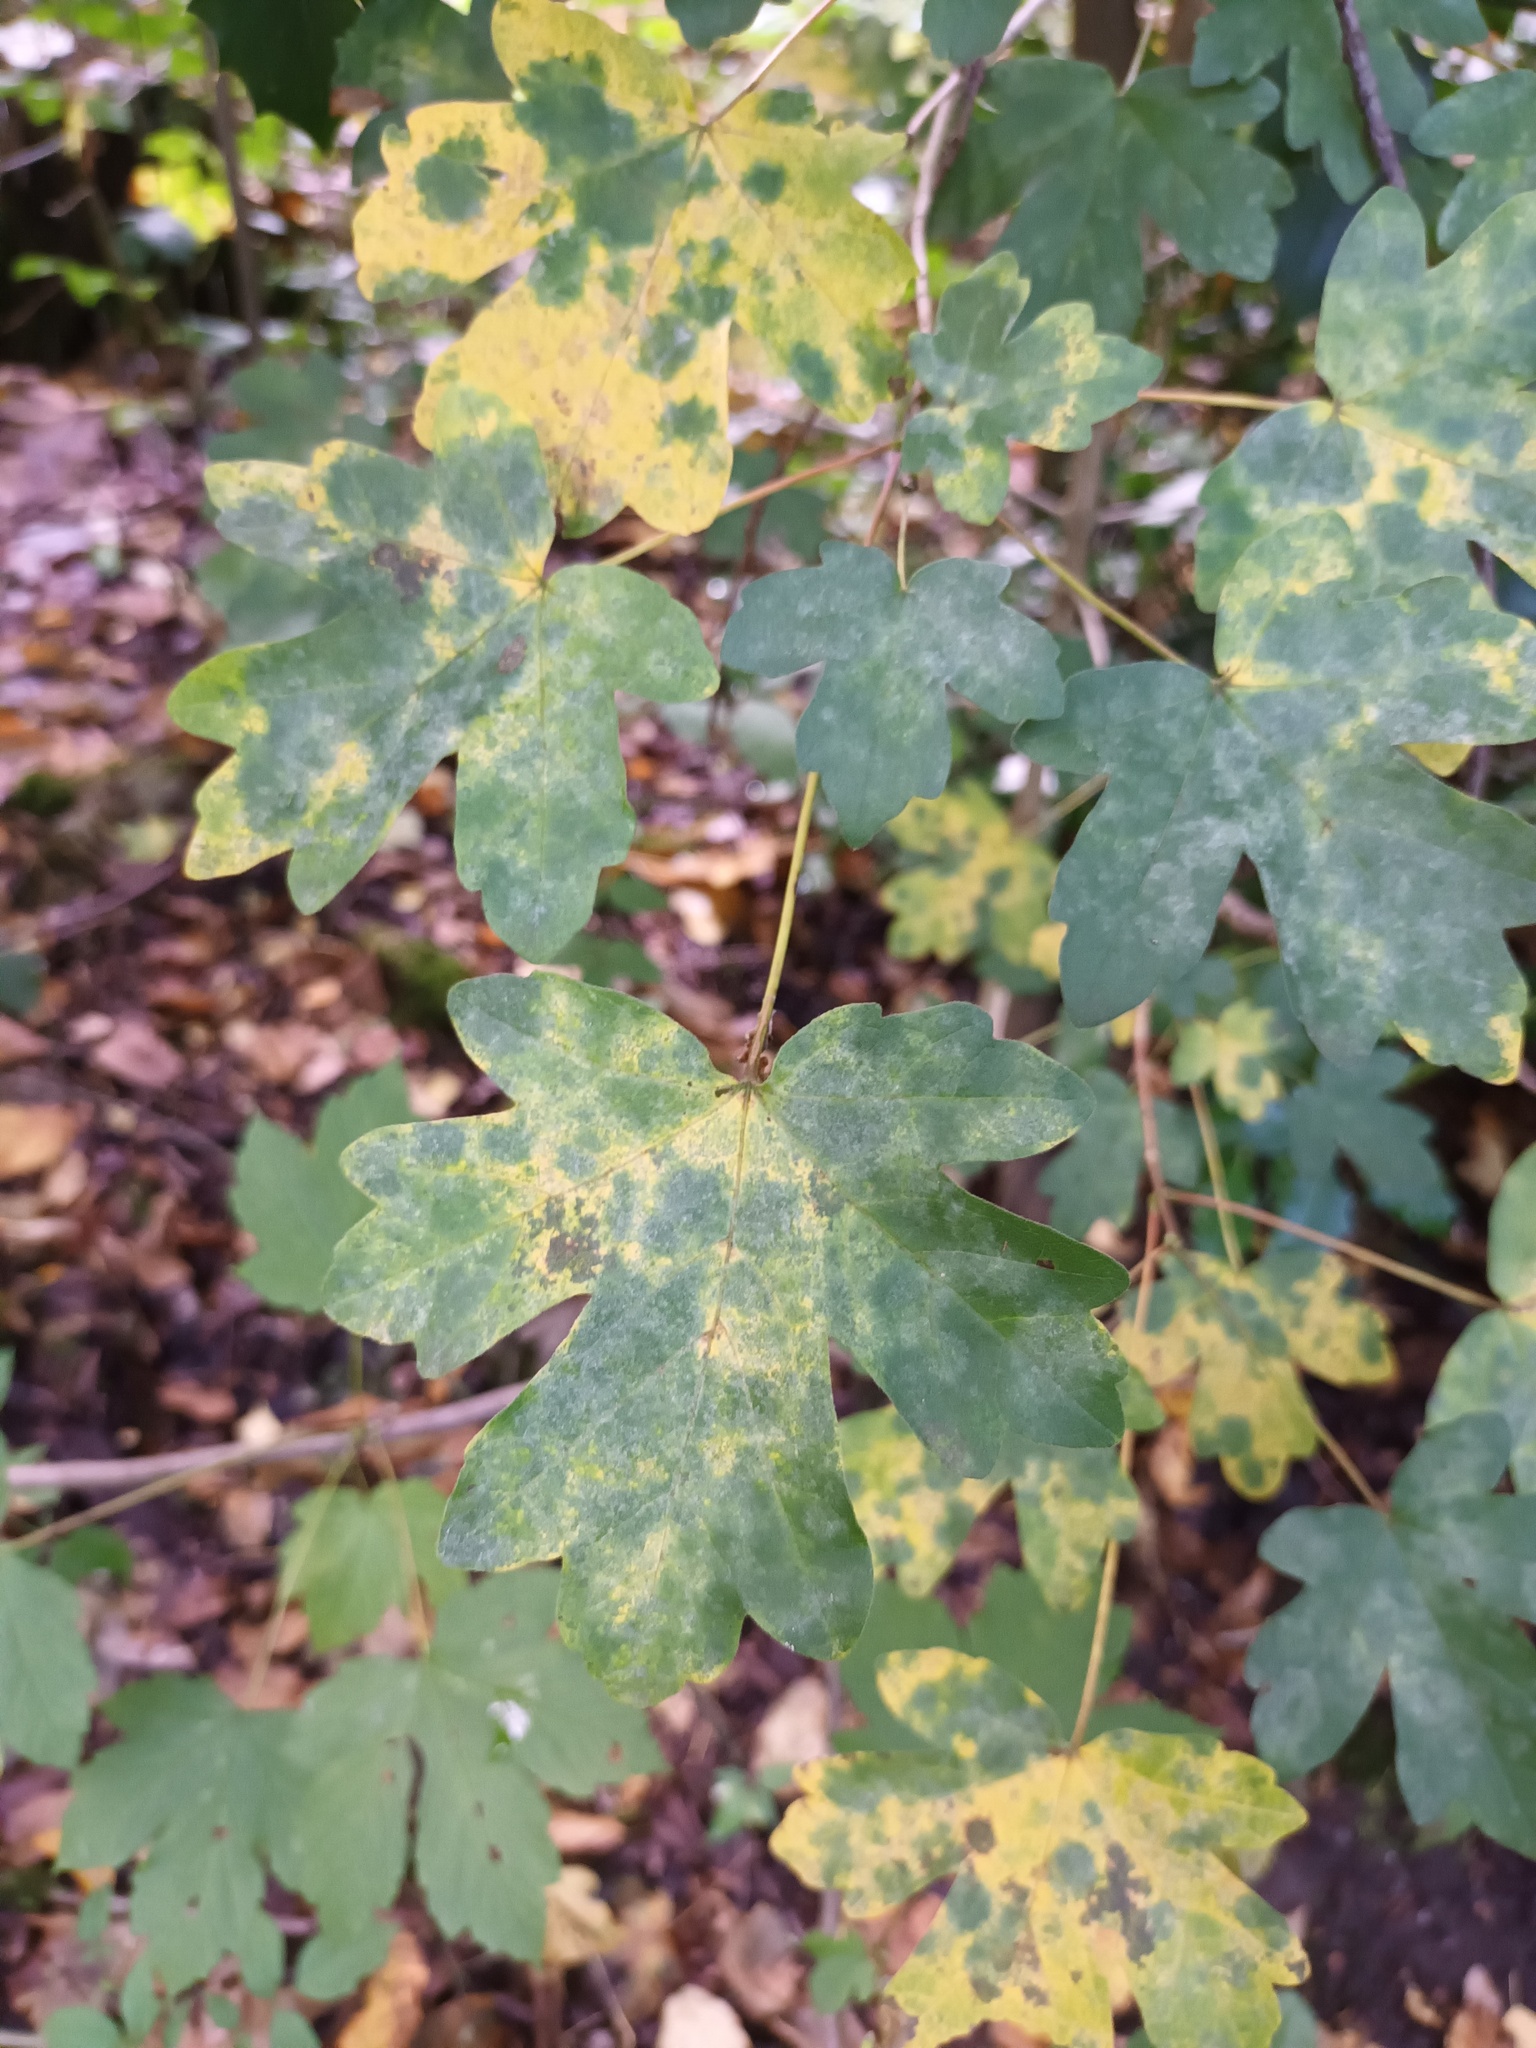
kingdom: Plantae
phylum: Tracheophyta
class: Magnoliopsida
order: Sapindales
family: Sapindaceae
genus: Acer
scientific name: Acer campestre
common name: Field maple
